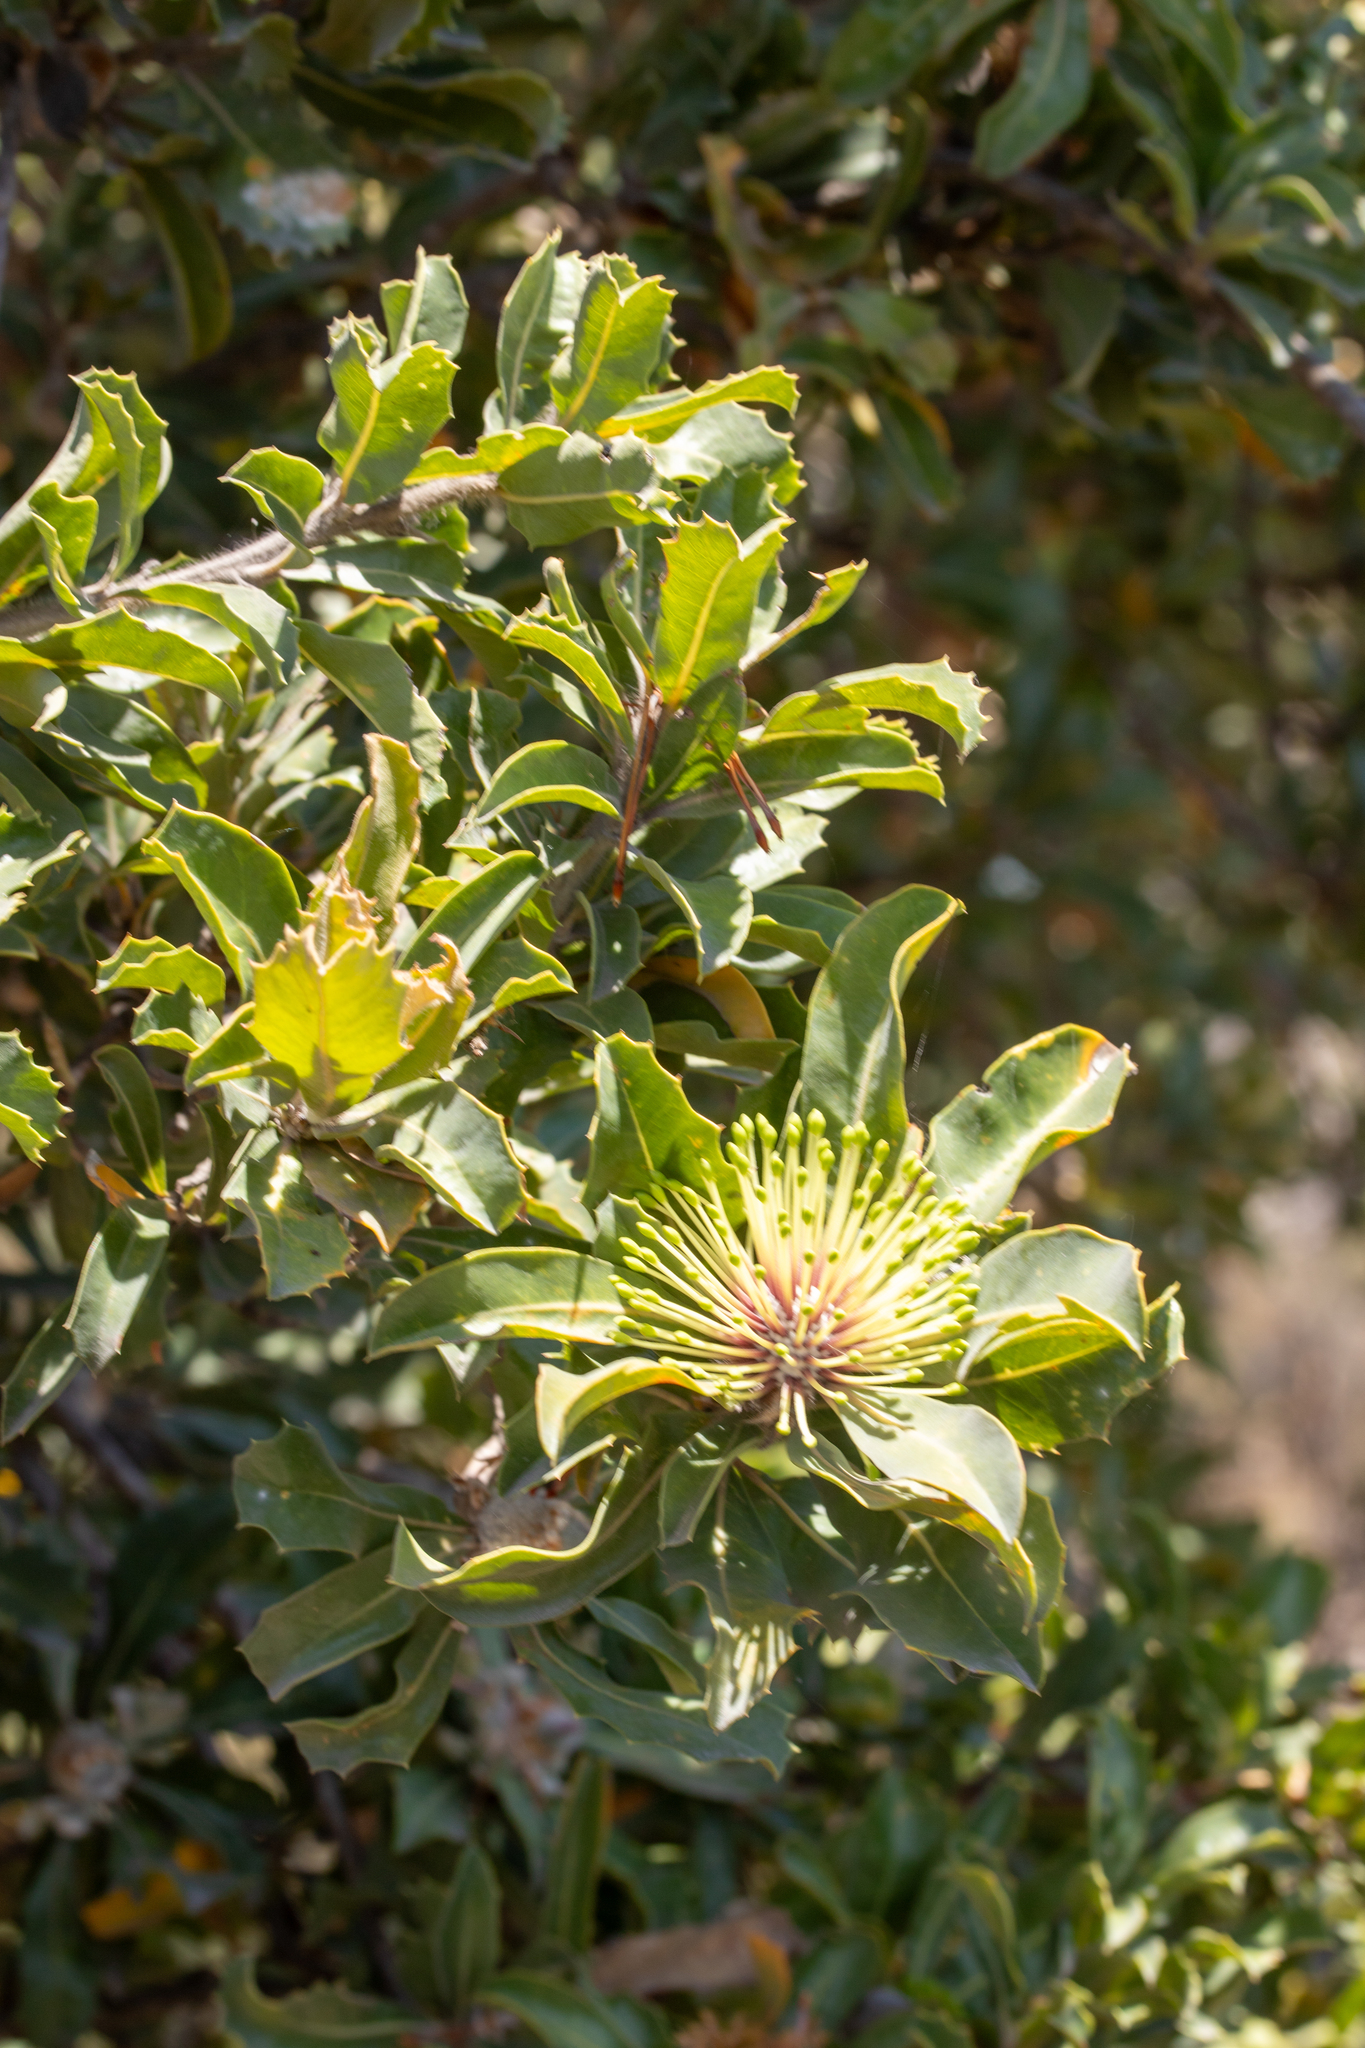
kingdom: Plantae
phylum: Tracheophyta
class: Magnoliopsida
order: Proteales
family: Proteaceae
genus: Banksia
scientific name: Banksia ilicifolia
